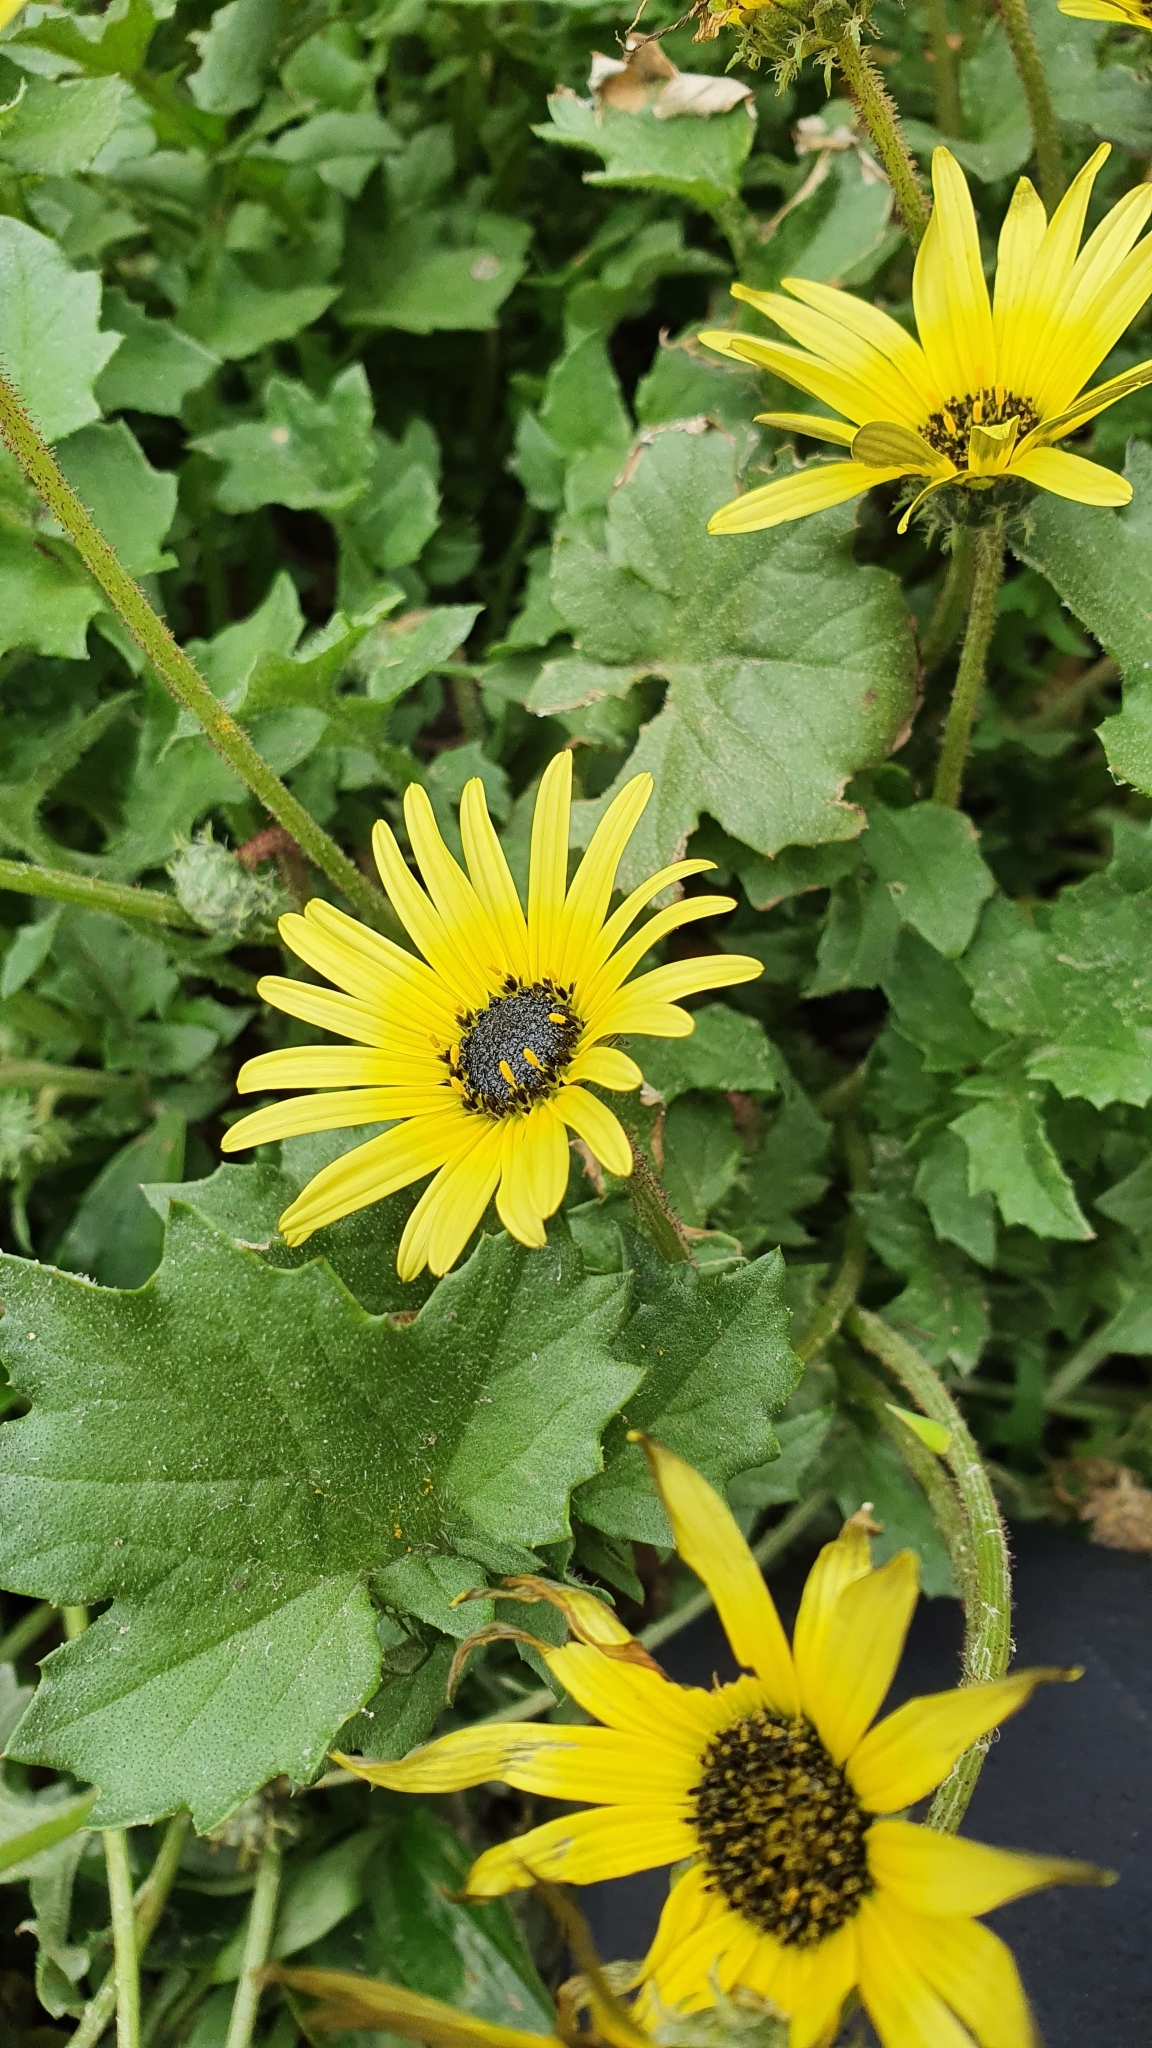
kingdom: Plantae
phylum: Tracheophyta
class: Magnoliopsida
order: Asterales
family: Asteraceae
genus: Arctotheca
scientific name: Arctotheca calendula
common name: Capeweed
